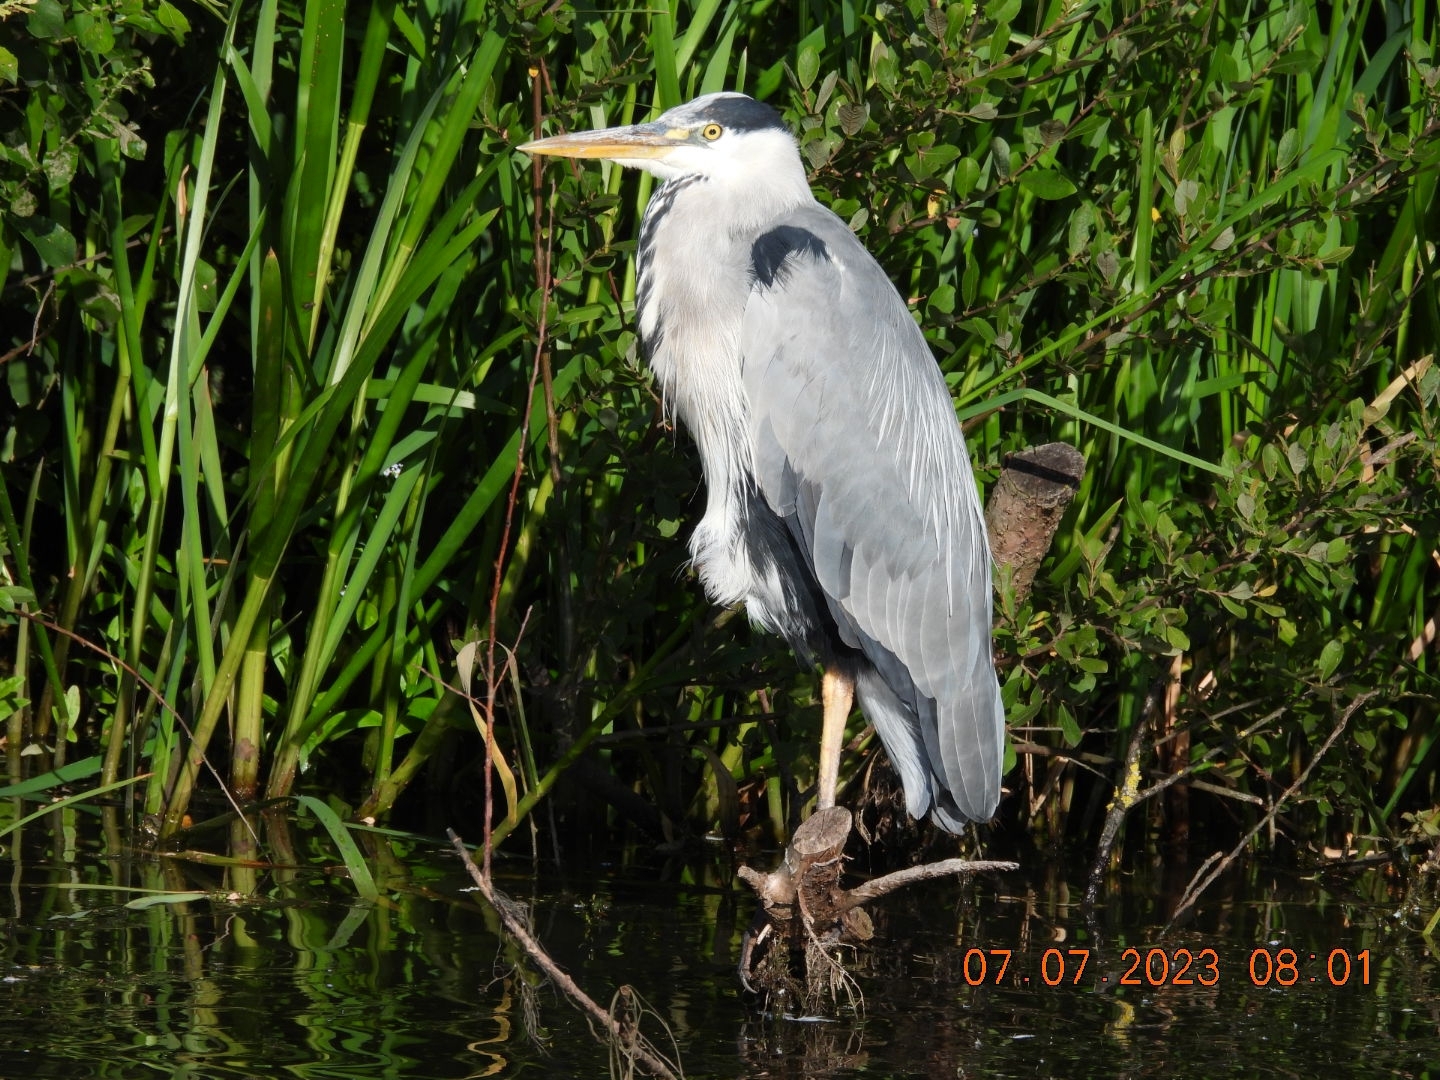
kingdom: Animalia
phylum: Chordata
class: Aves
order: Pelecaniformes
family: Ardeidae
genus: Ardea
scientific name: Ardea cinerea
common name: Grey heron
